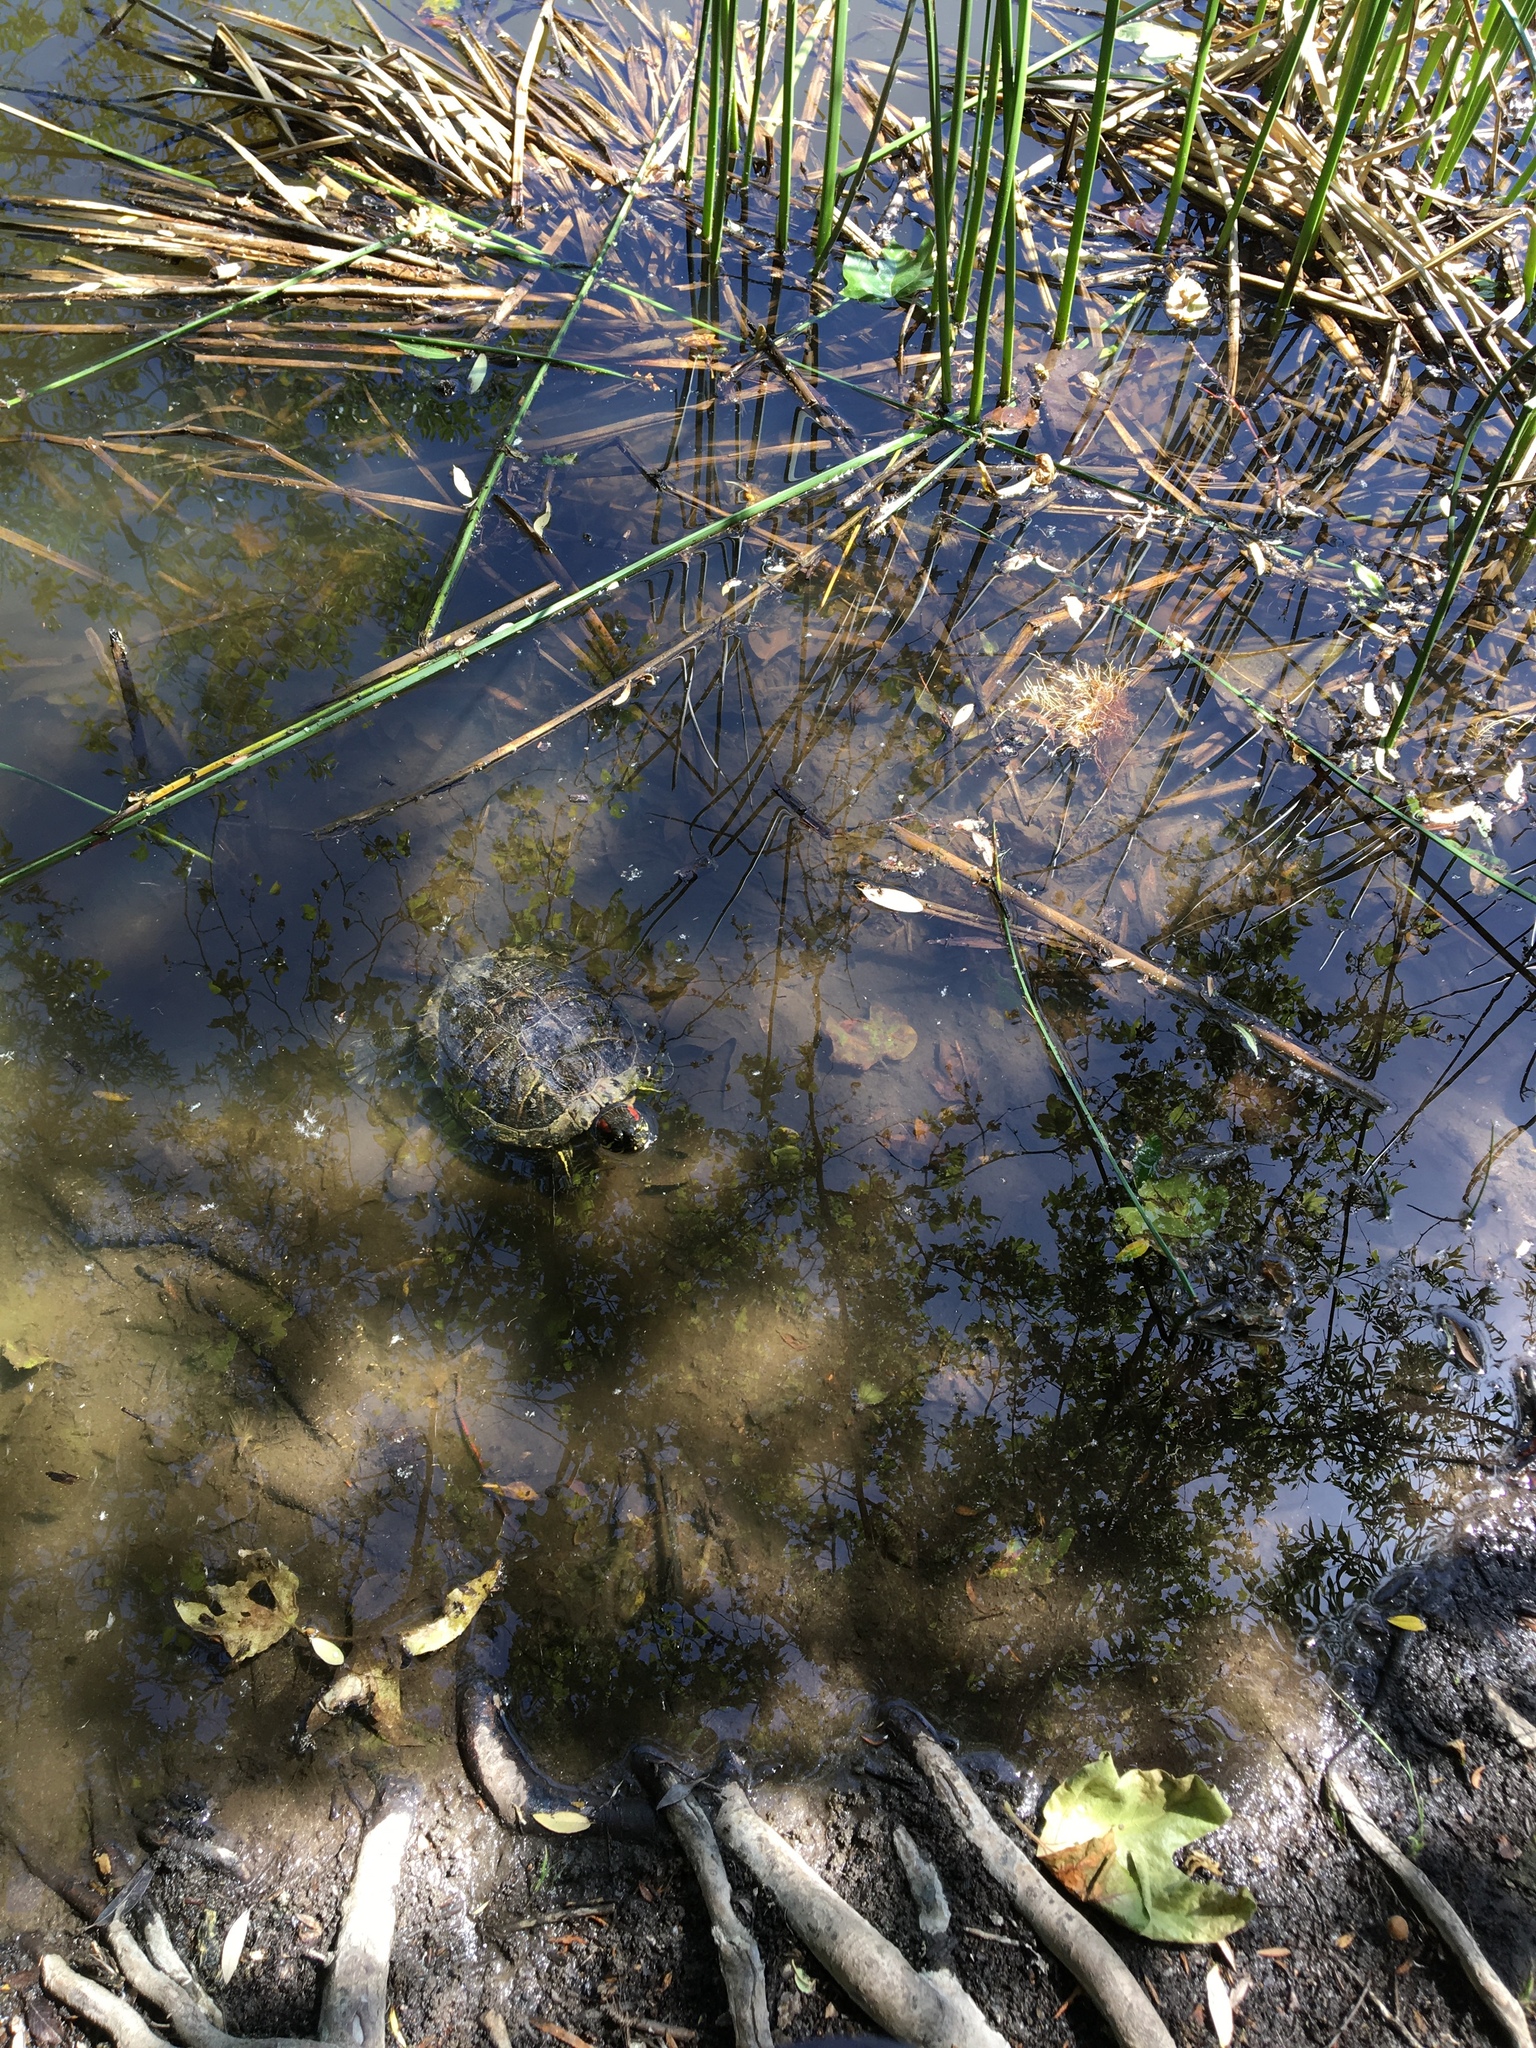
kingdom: Animalia
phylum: Chordata
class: Testudines
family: Emydidae
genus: Trachemys
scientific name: Trachemys scripta
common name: Slider
